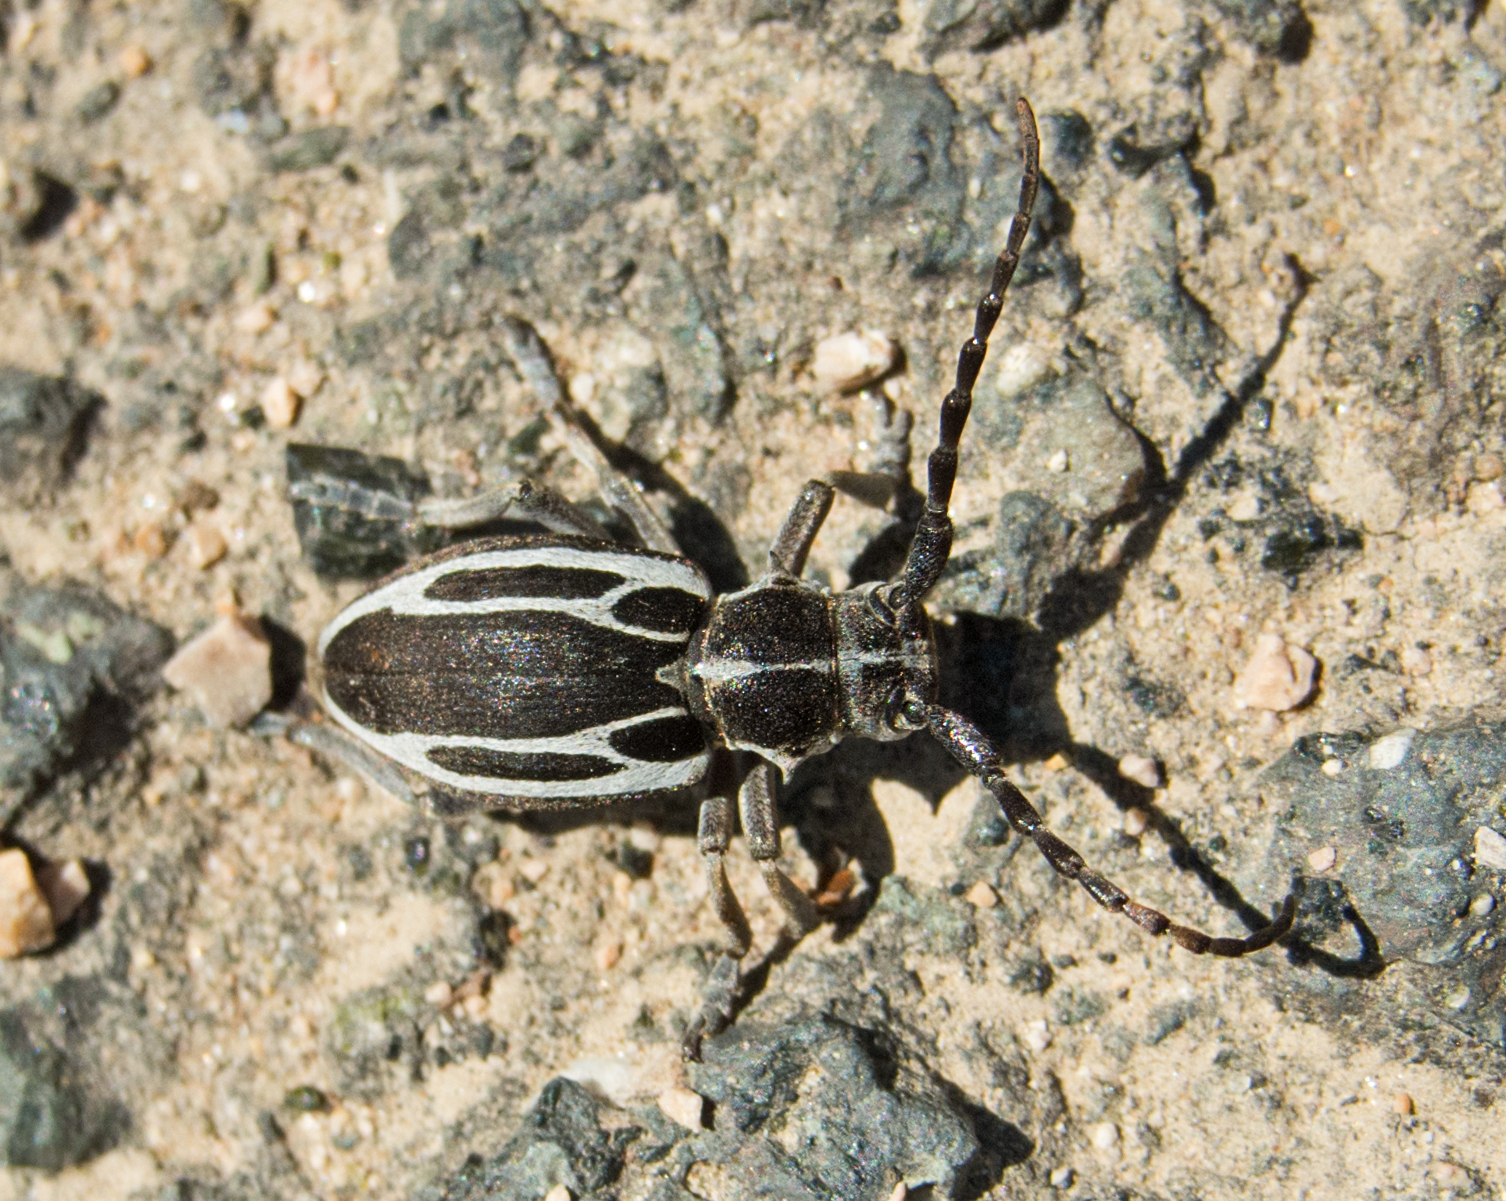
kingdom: Animalia
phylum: Arthropoda
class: Insecta
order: Coleoptera
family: Cerambycidae
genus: Neodorcadion
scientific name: Neodorcadion exornatum
